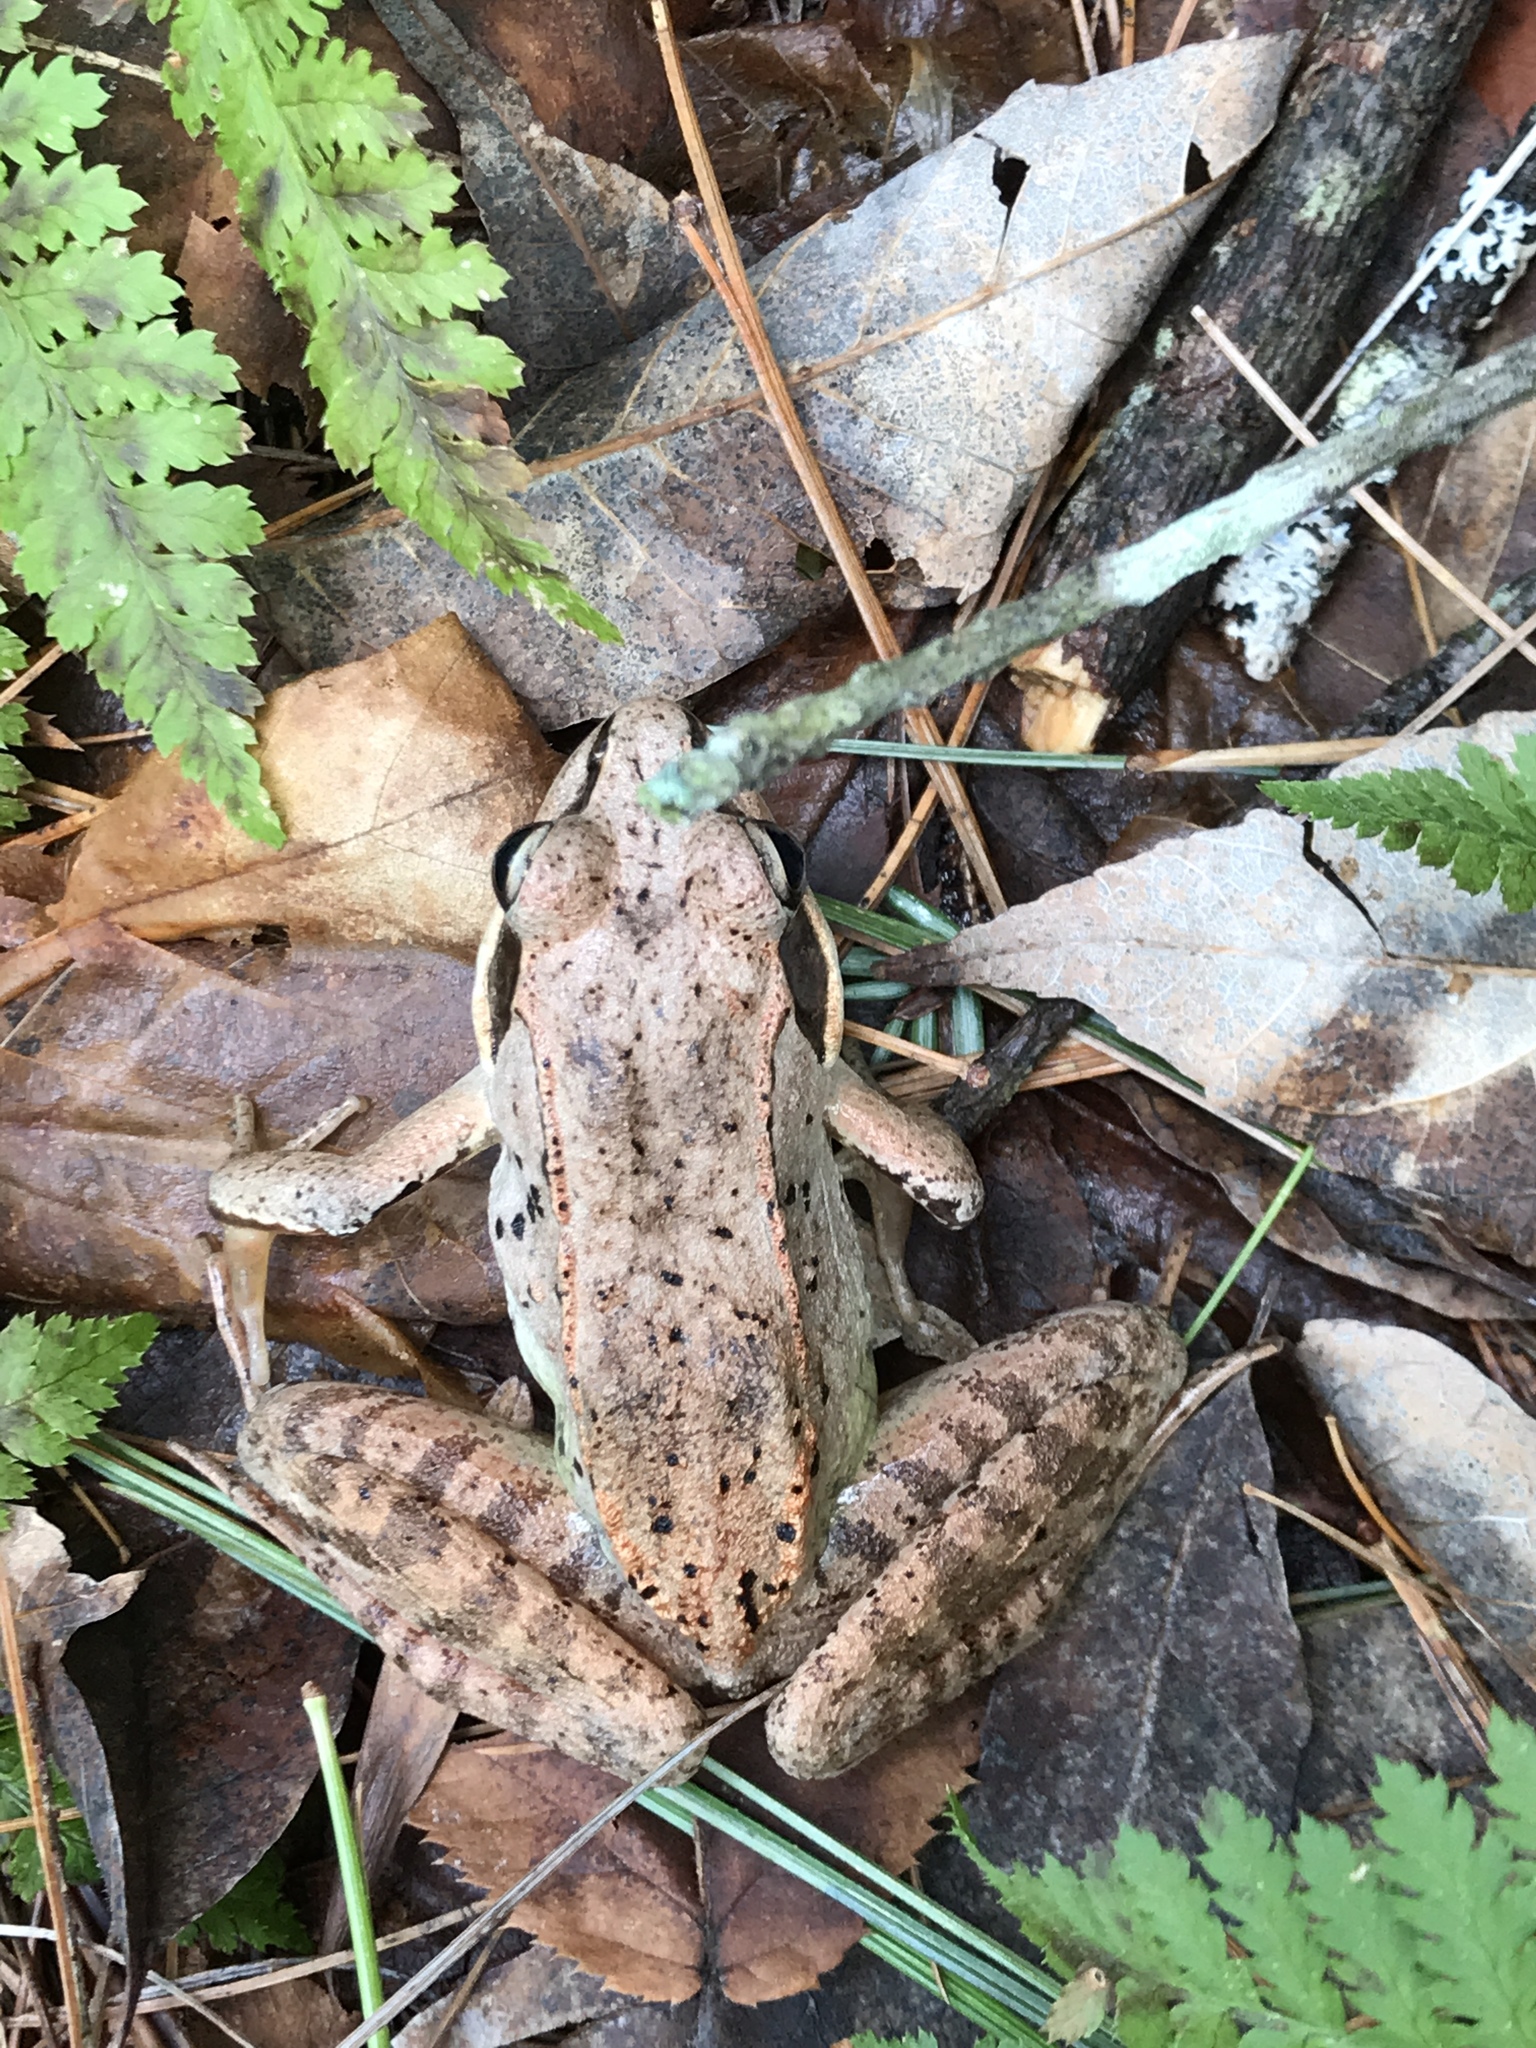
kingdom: Animalia
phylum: Chordata
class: Amphibia
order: Anura
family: Ranidae
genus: Lithobates
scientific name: Lithobates sylvaticus
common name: Wood frog
